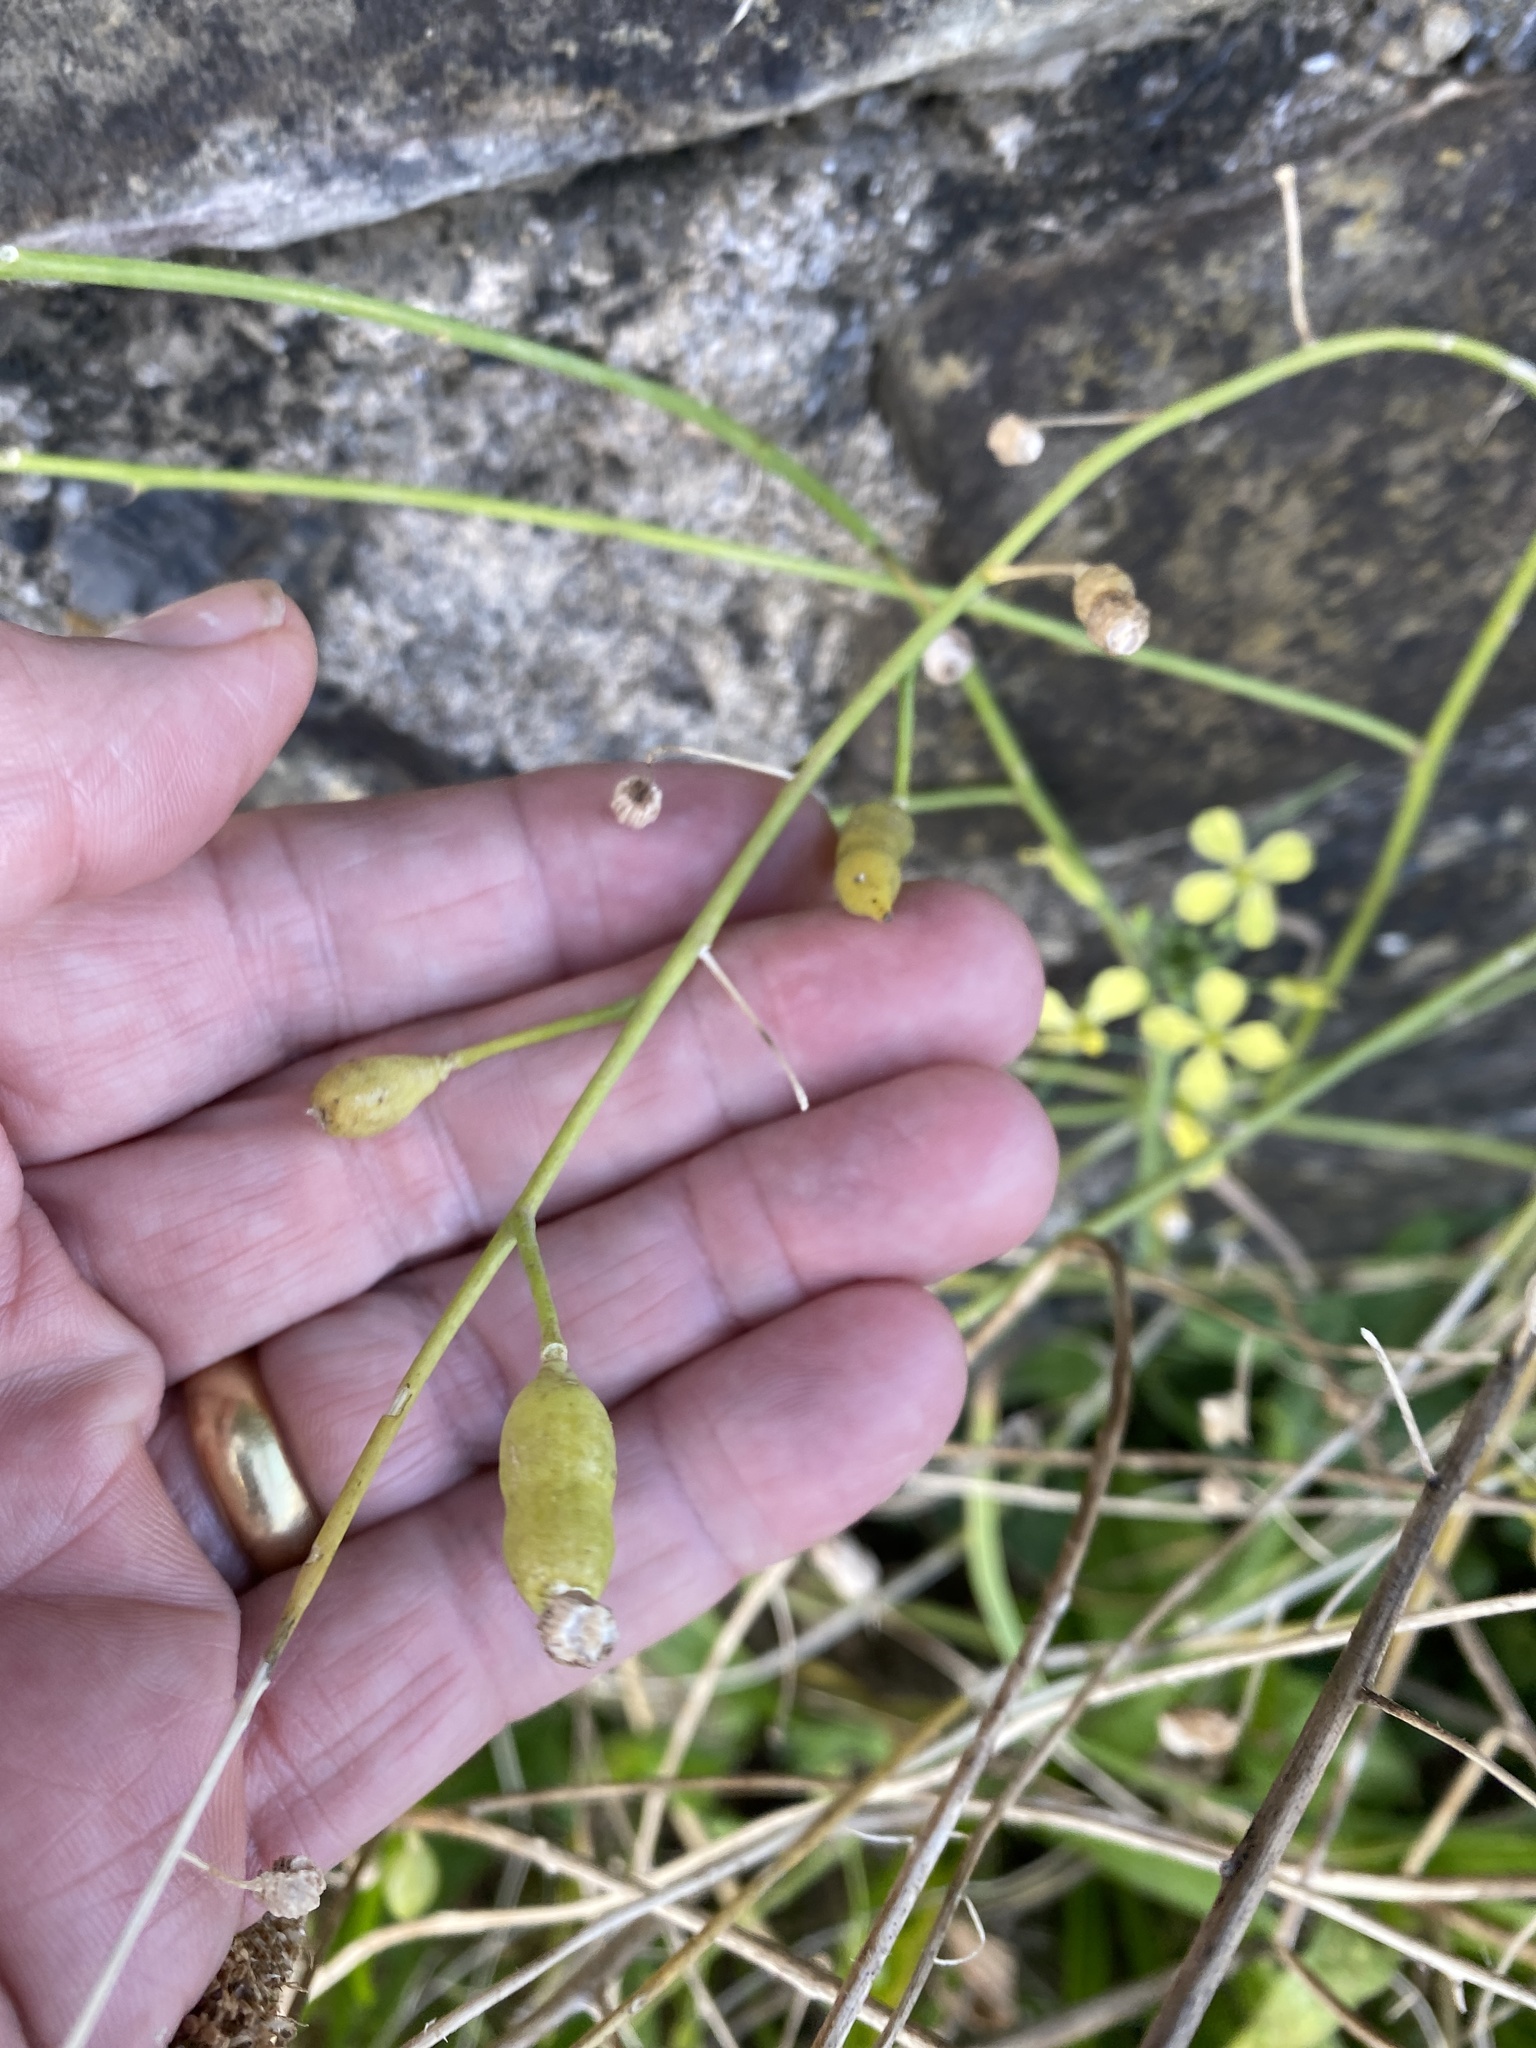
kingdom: Plantae
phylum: Tracheophyta
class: Magnoliopsida
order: Brassicales
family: Brassicaceae
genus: Raphanus
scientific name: Raphanus raphanistrum
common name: Wild radish
